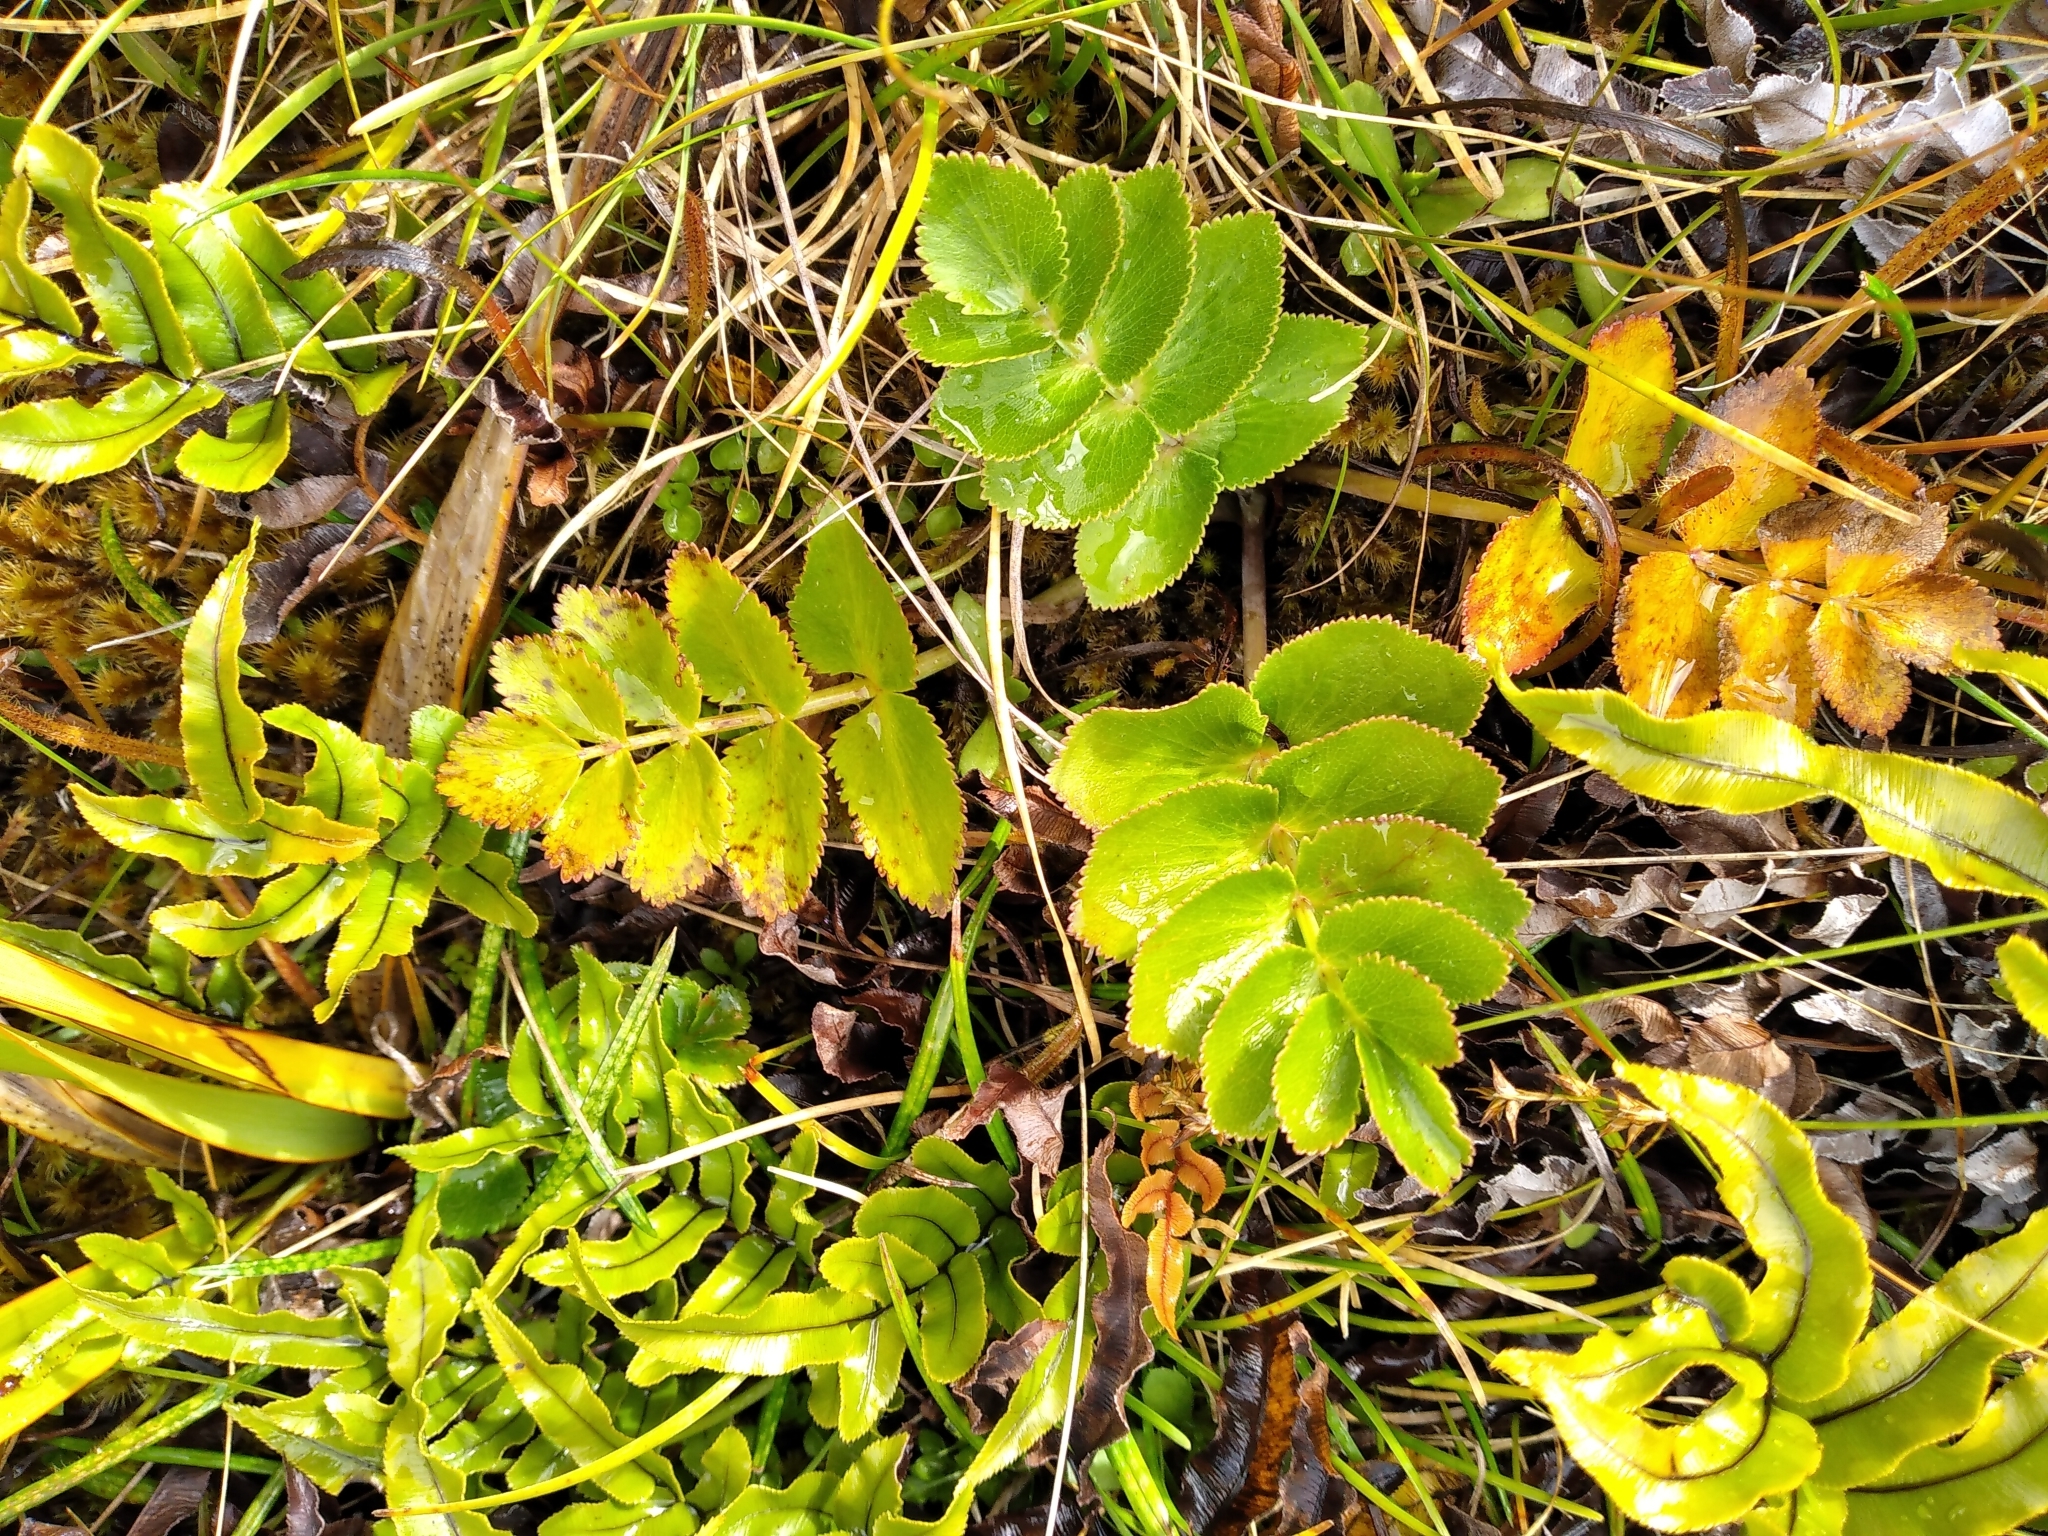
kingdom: Plantae
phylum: Tracheophyta
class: Magnoliopsida
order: Apiales
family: Apiaceae
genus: Gingidia
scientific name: Gingidia montana
